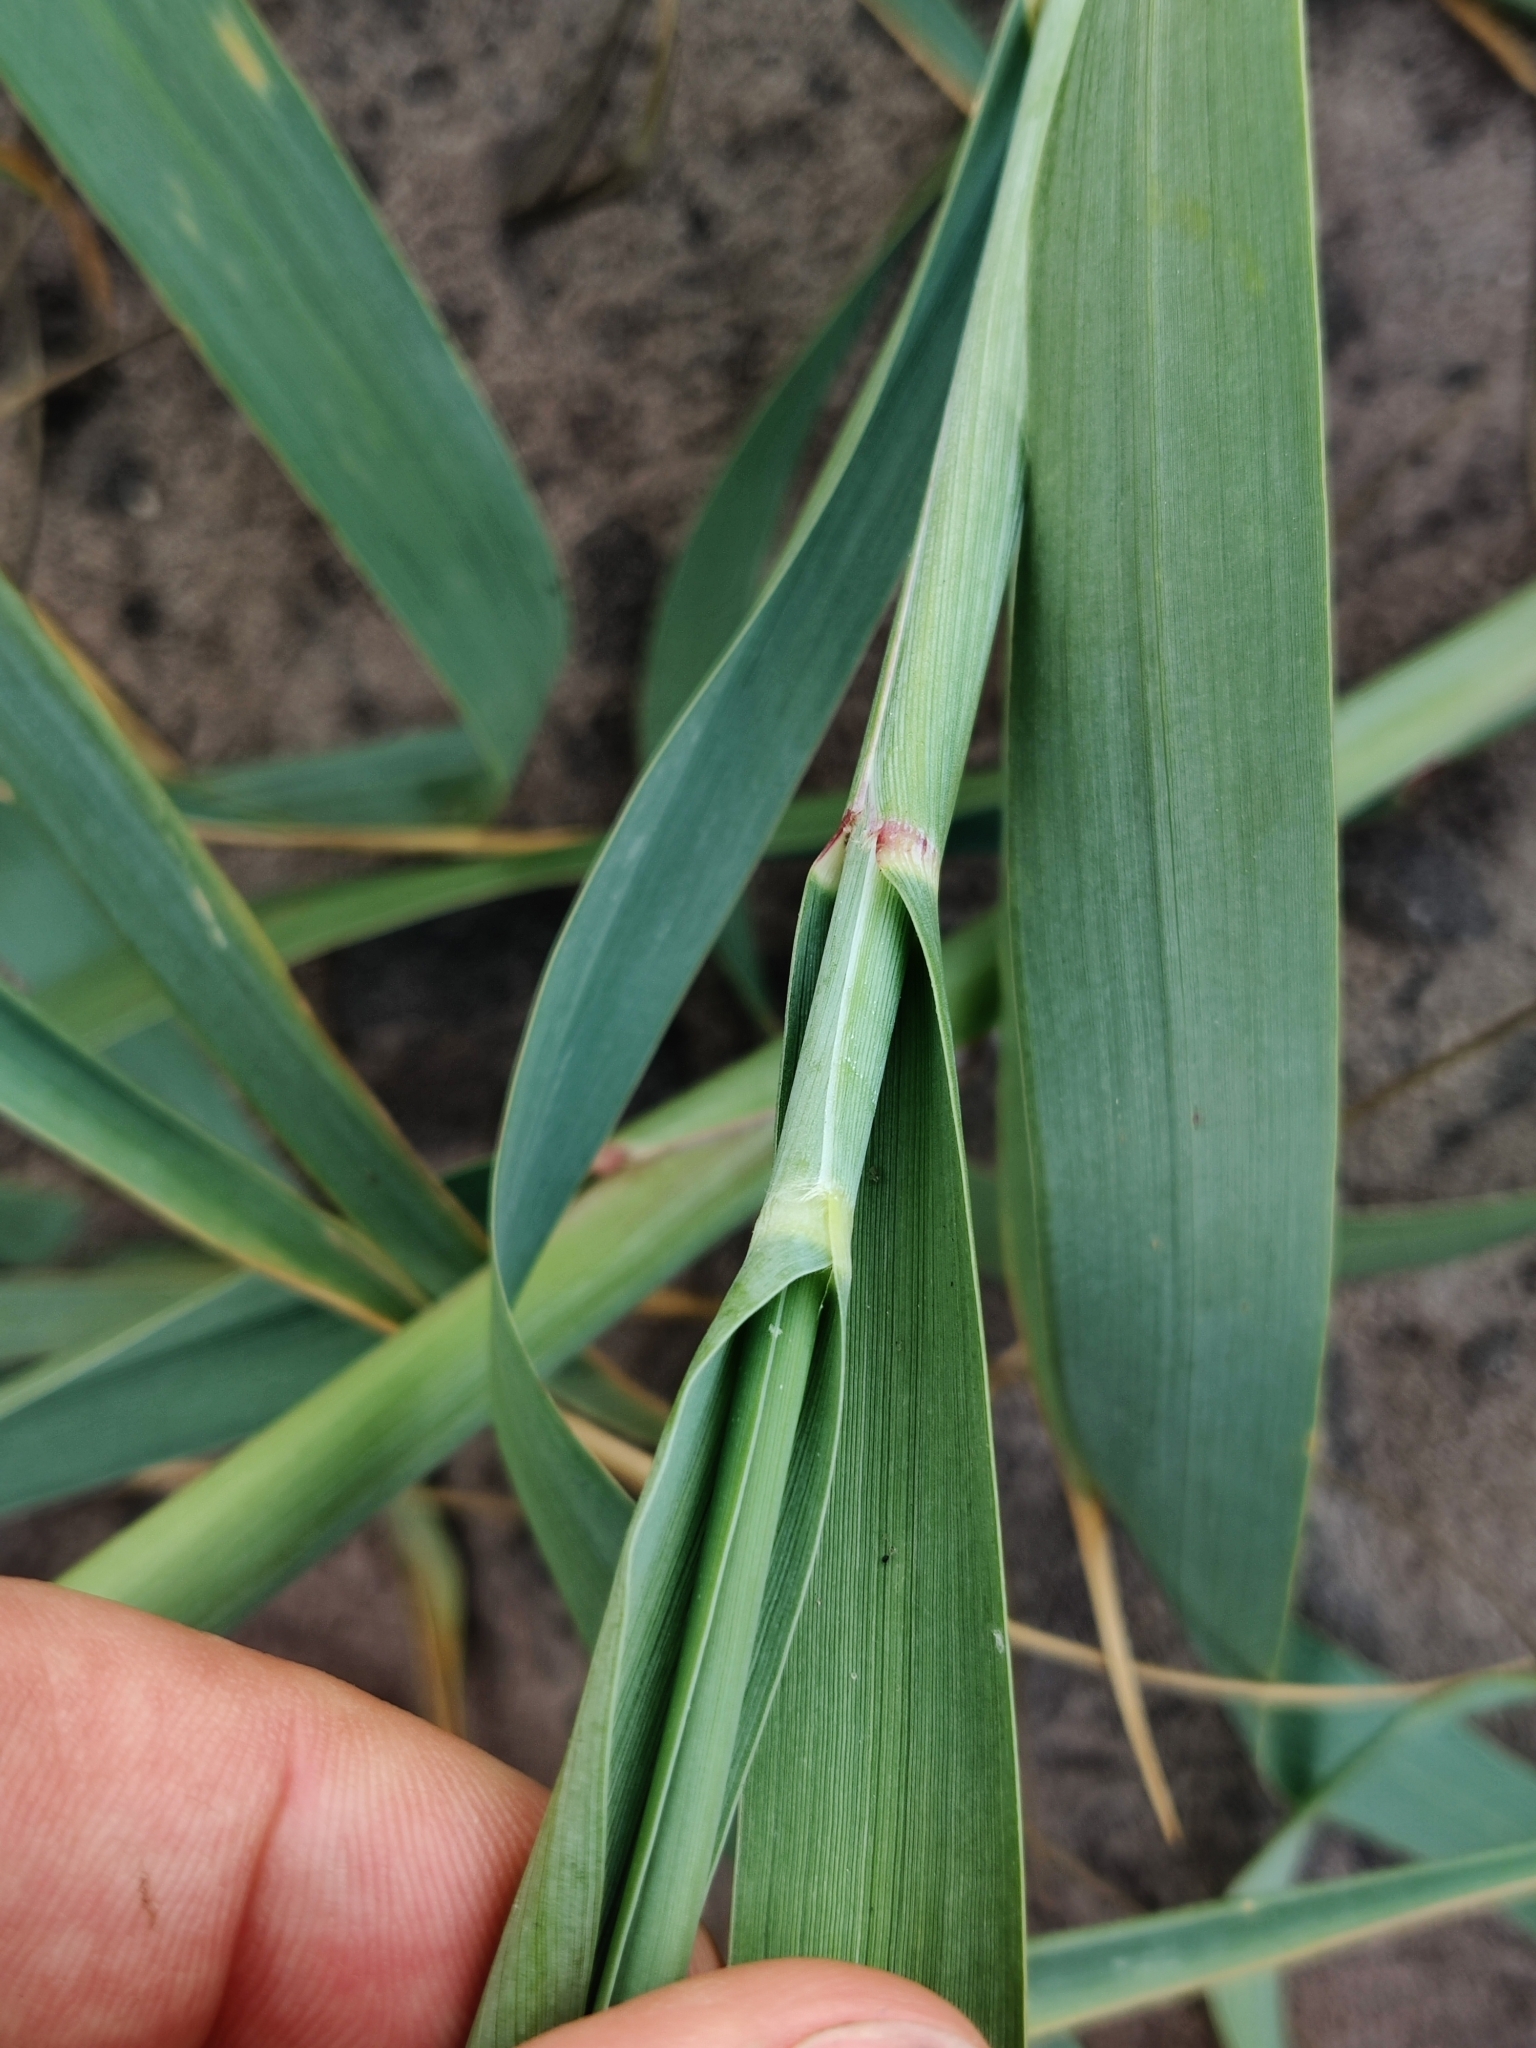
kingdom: Plantae
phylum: Tracheophyta
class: Liliopsida
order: Poales
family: Poaceae
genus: Panicum
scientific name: Panicum amarum
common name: Bitter panicum
